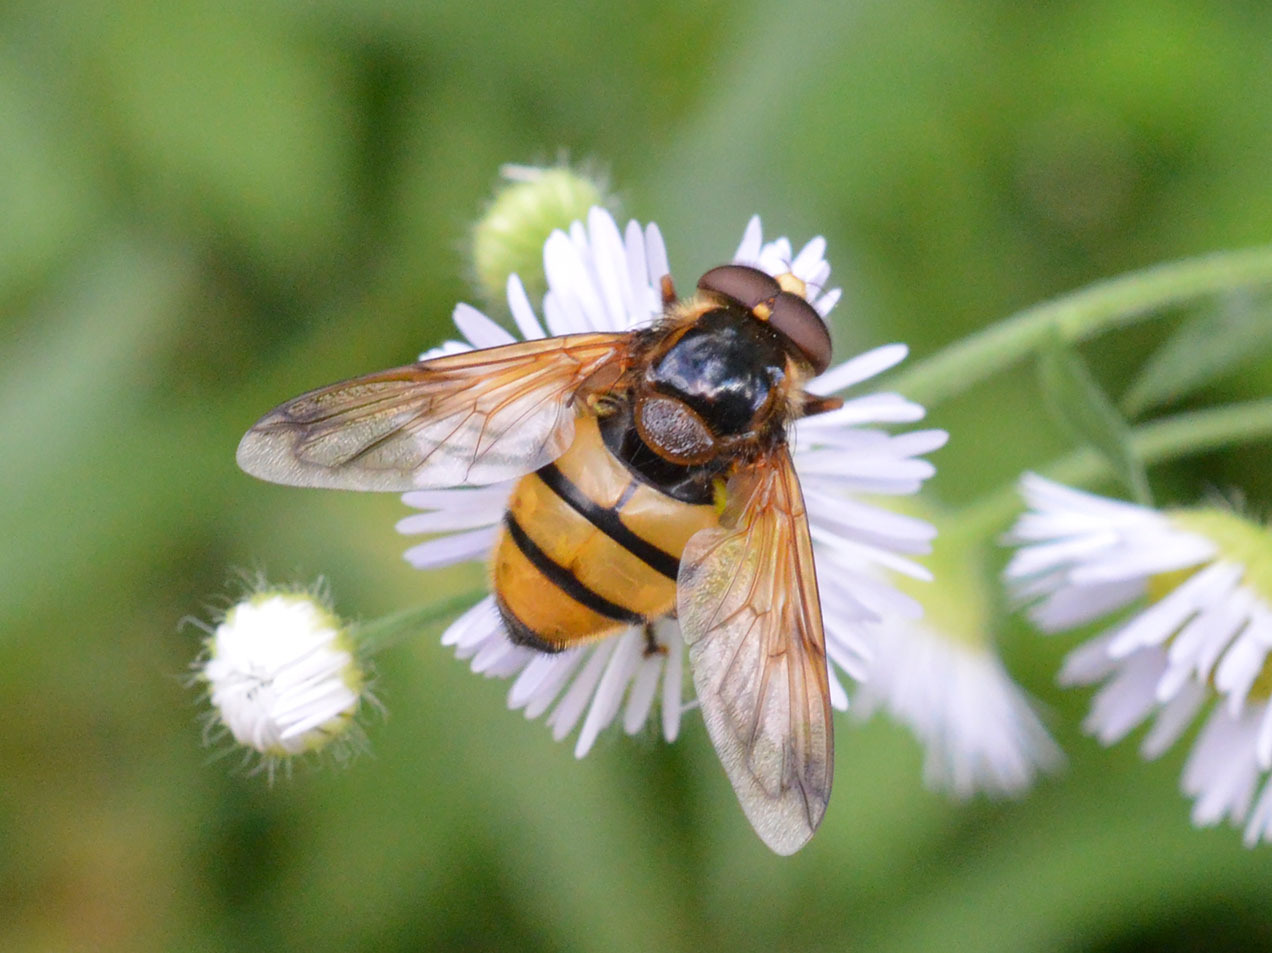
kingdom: Animalia
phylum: Arthropoda
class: Insecta
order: Diptera
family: Syrphidae
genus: Volucella
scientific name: Volucella inanis
